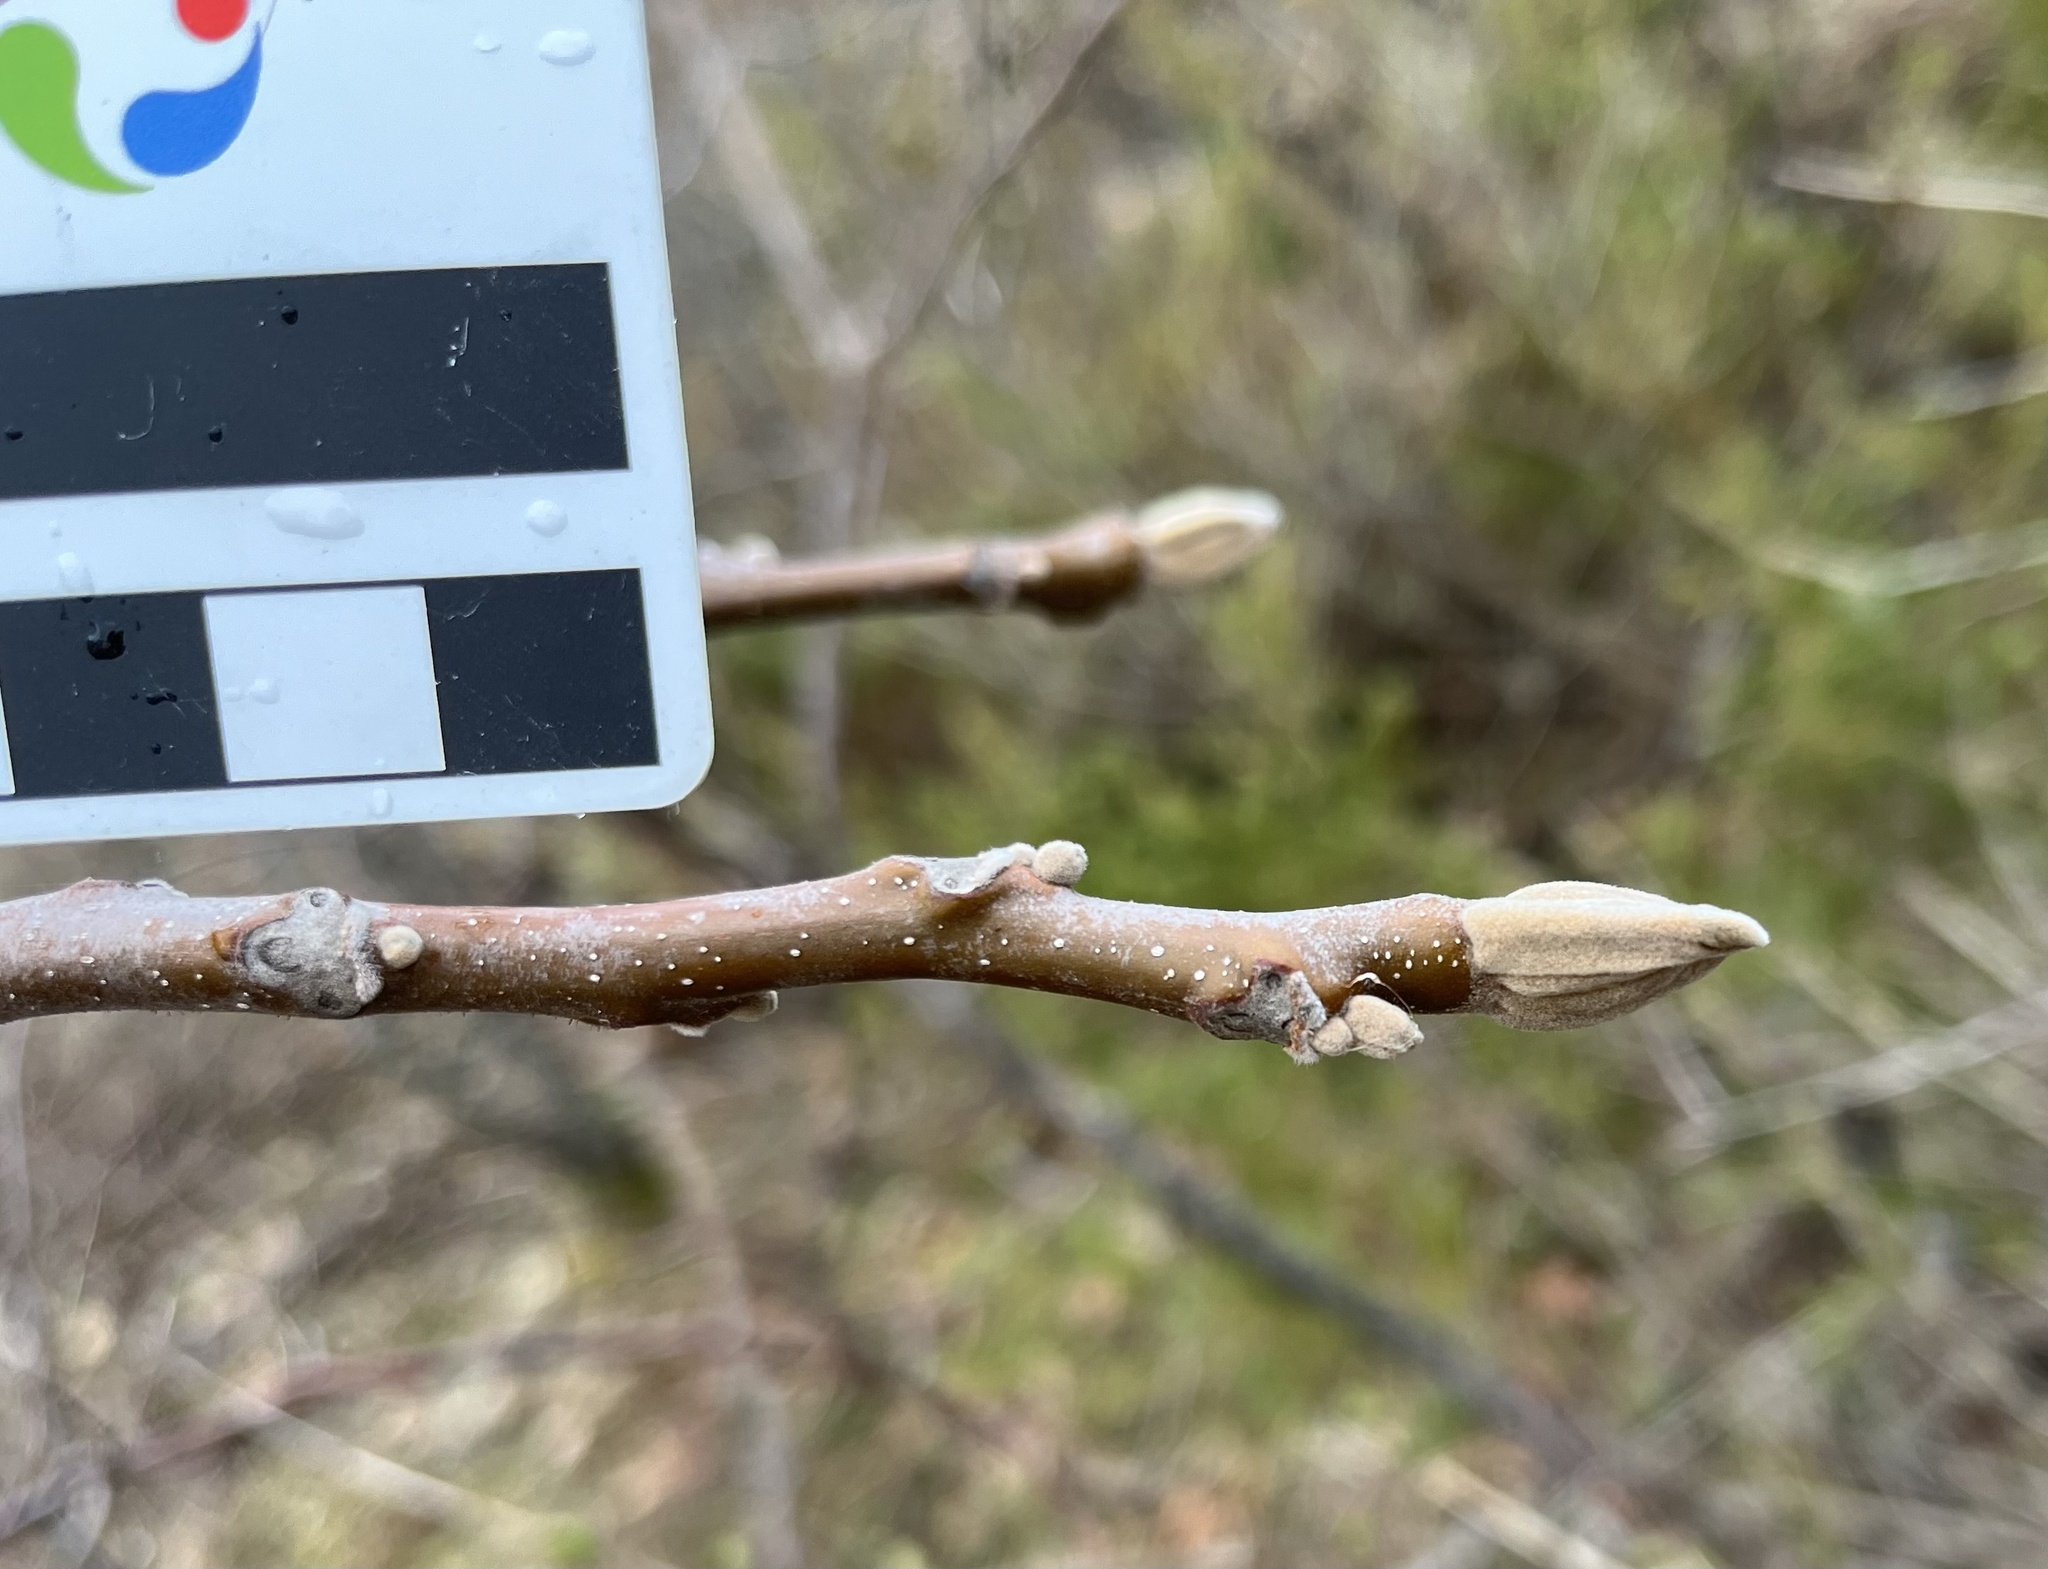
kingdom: Plantae
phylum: Tracheophyta
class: Magnoliopsida
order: Fagales
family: Juglandaceae
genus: Juglans
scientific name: Juglans cinerea
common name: Butternut
